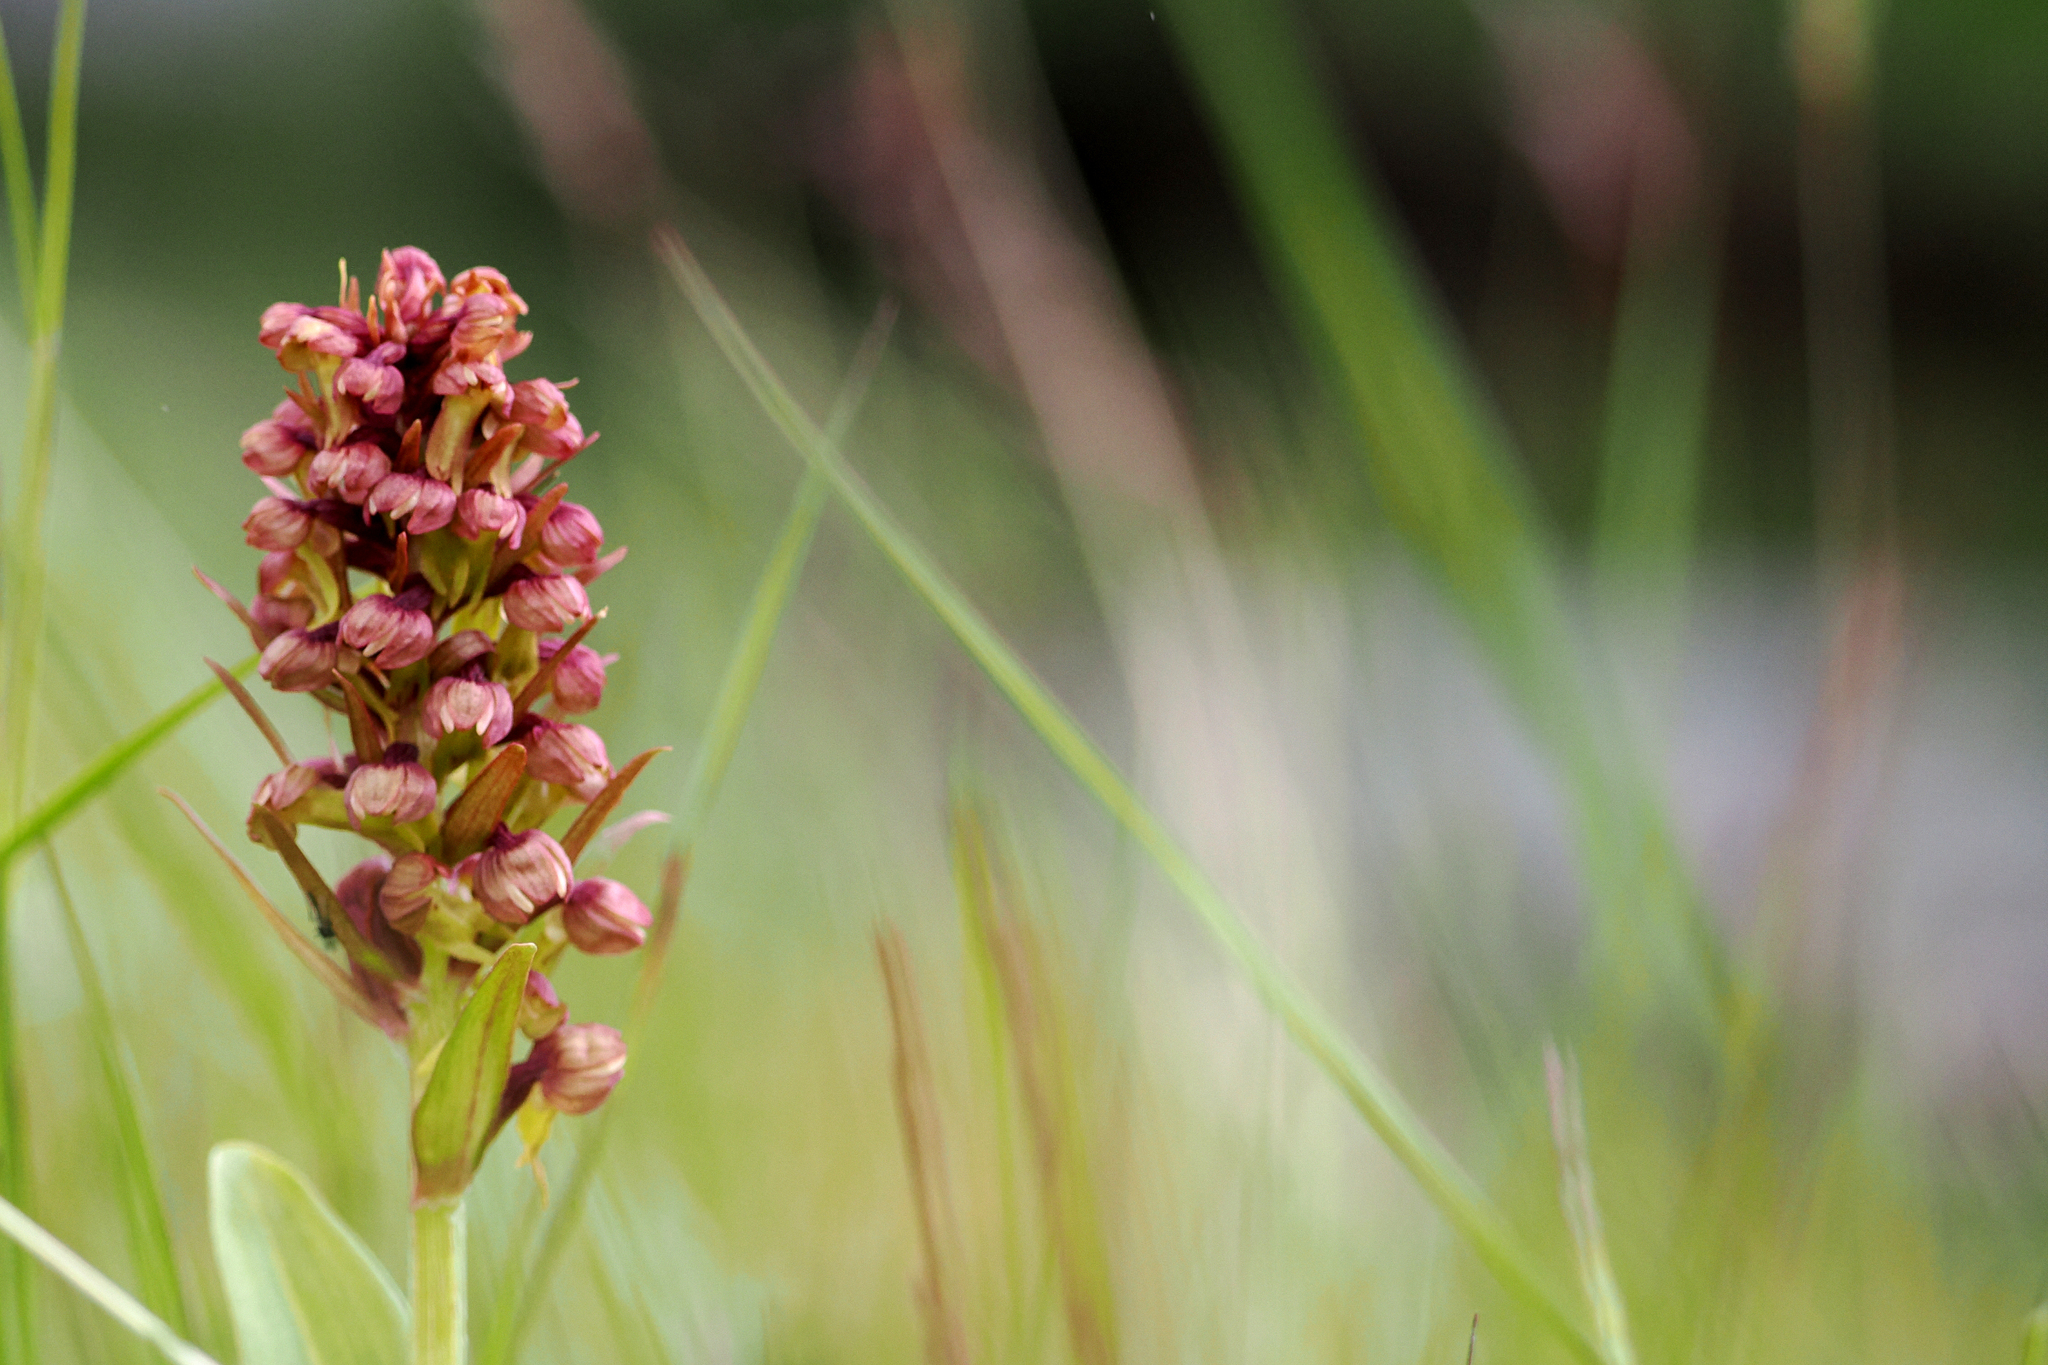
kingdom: Plantae
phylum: Tracheophyta
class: Liliopsida
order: Asparagales
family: Orchidaceae
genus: Dactylorhiza
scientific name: Dactylorhiza viridis
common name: Longbract frog orchid
